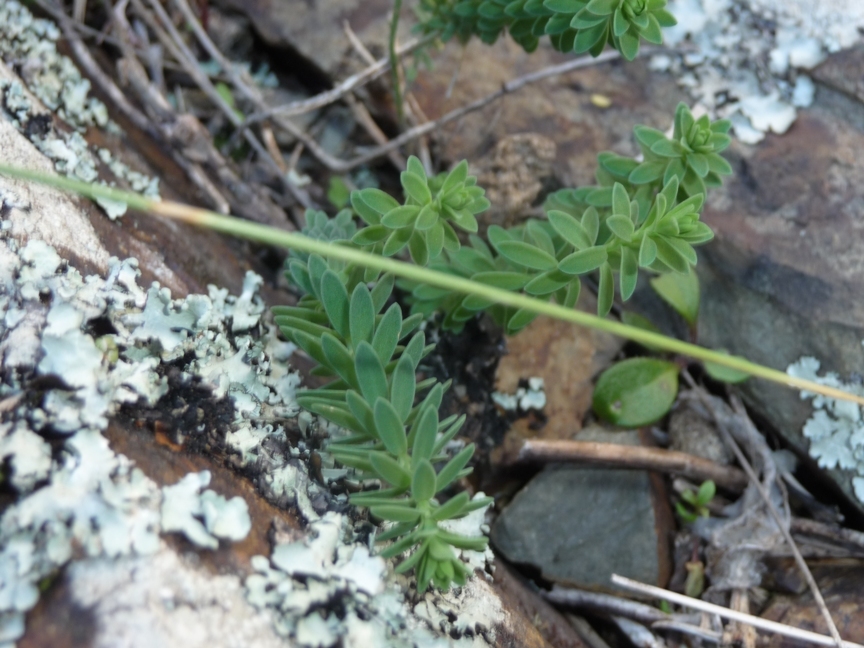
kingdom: Plantae
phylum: Tracheophyta
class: Magnoliopsida
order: Malpighiales
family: Linaceae
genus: Linum
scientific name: Linum monogynum
